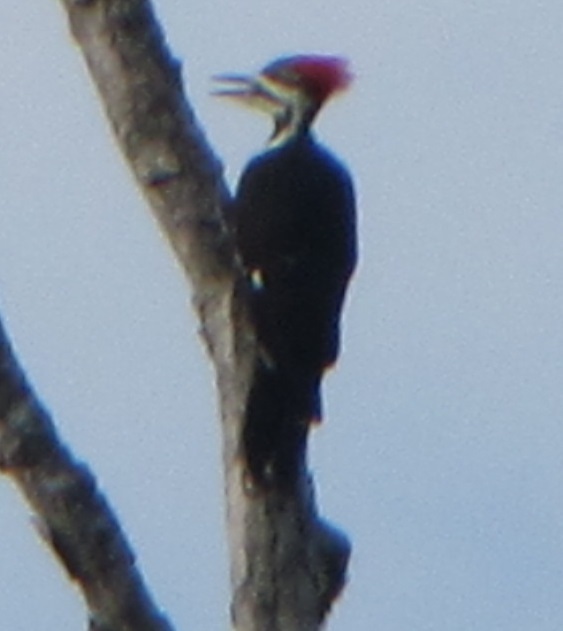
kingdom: Animalia
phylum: Chordata
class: Aves
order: Piciformes
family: Picidae
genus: Dryocopus
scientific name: Dryocopus pileatus
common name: Pileated woodpecker
